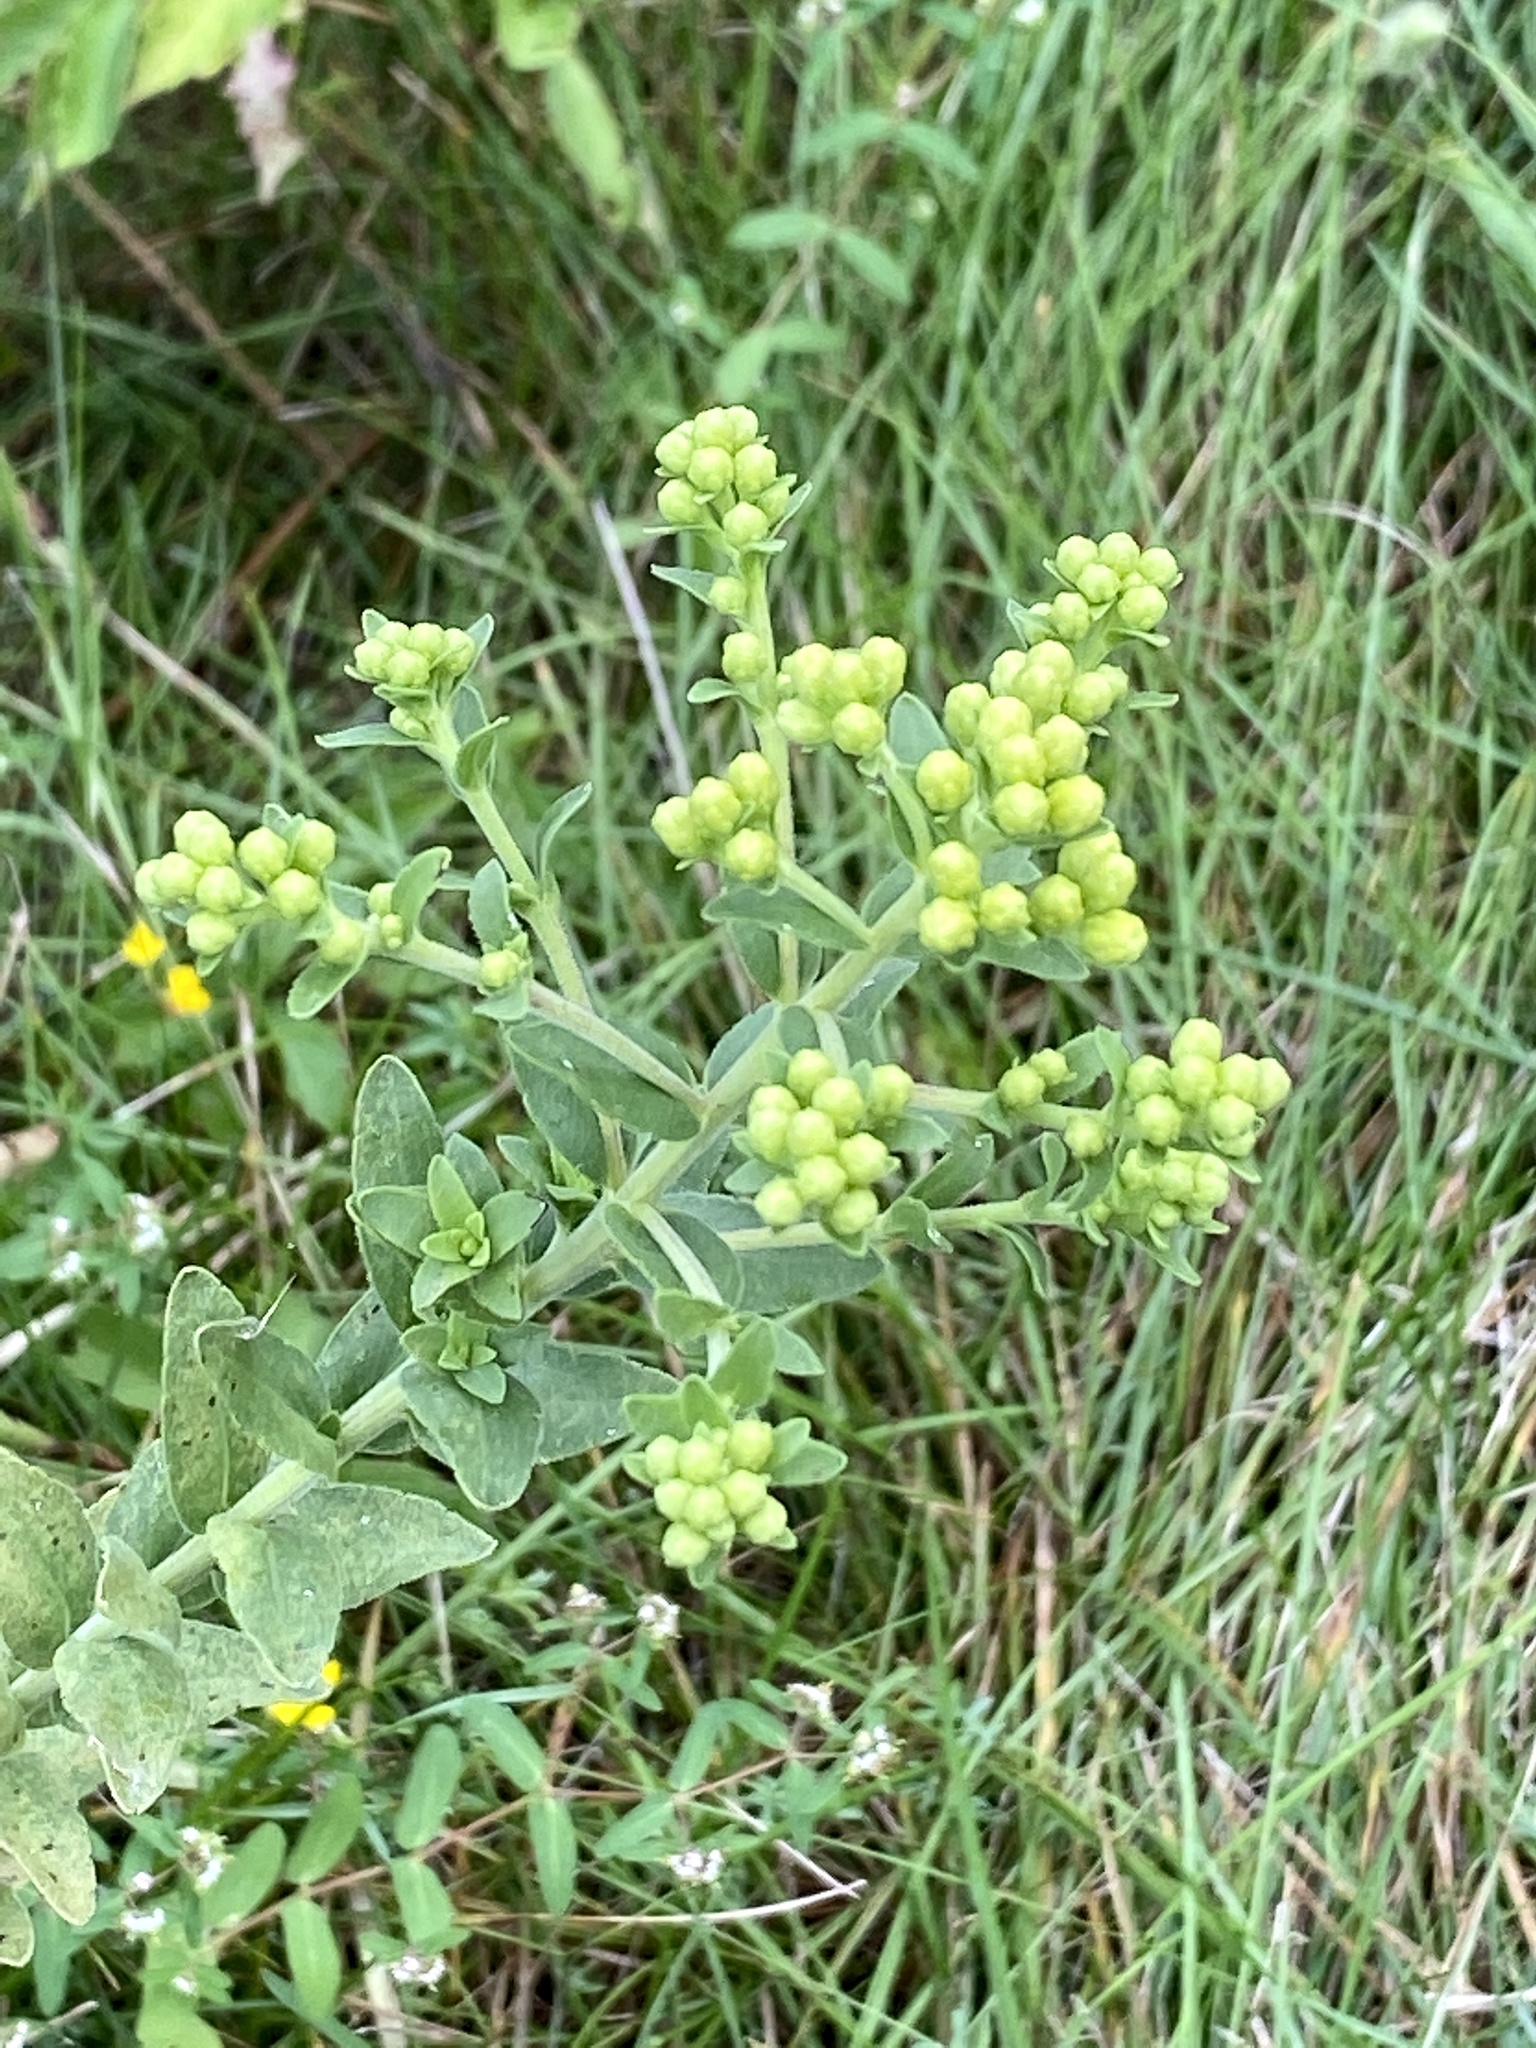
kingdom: Plantae
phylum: Tracheophyta
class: Magnoliopsida
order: Asterales
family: Asteraceae
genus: Solidago
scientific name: Solidago rigida
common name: Rigid goldenrod
